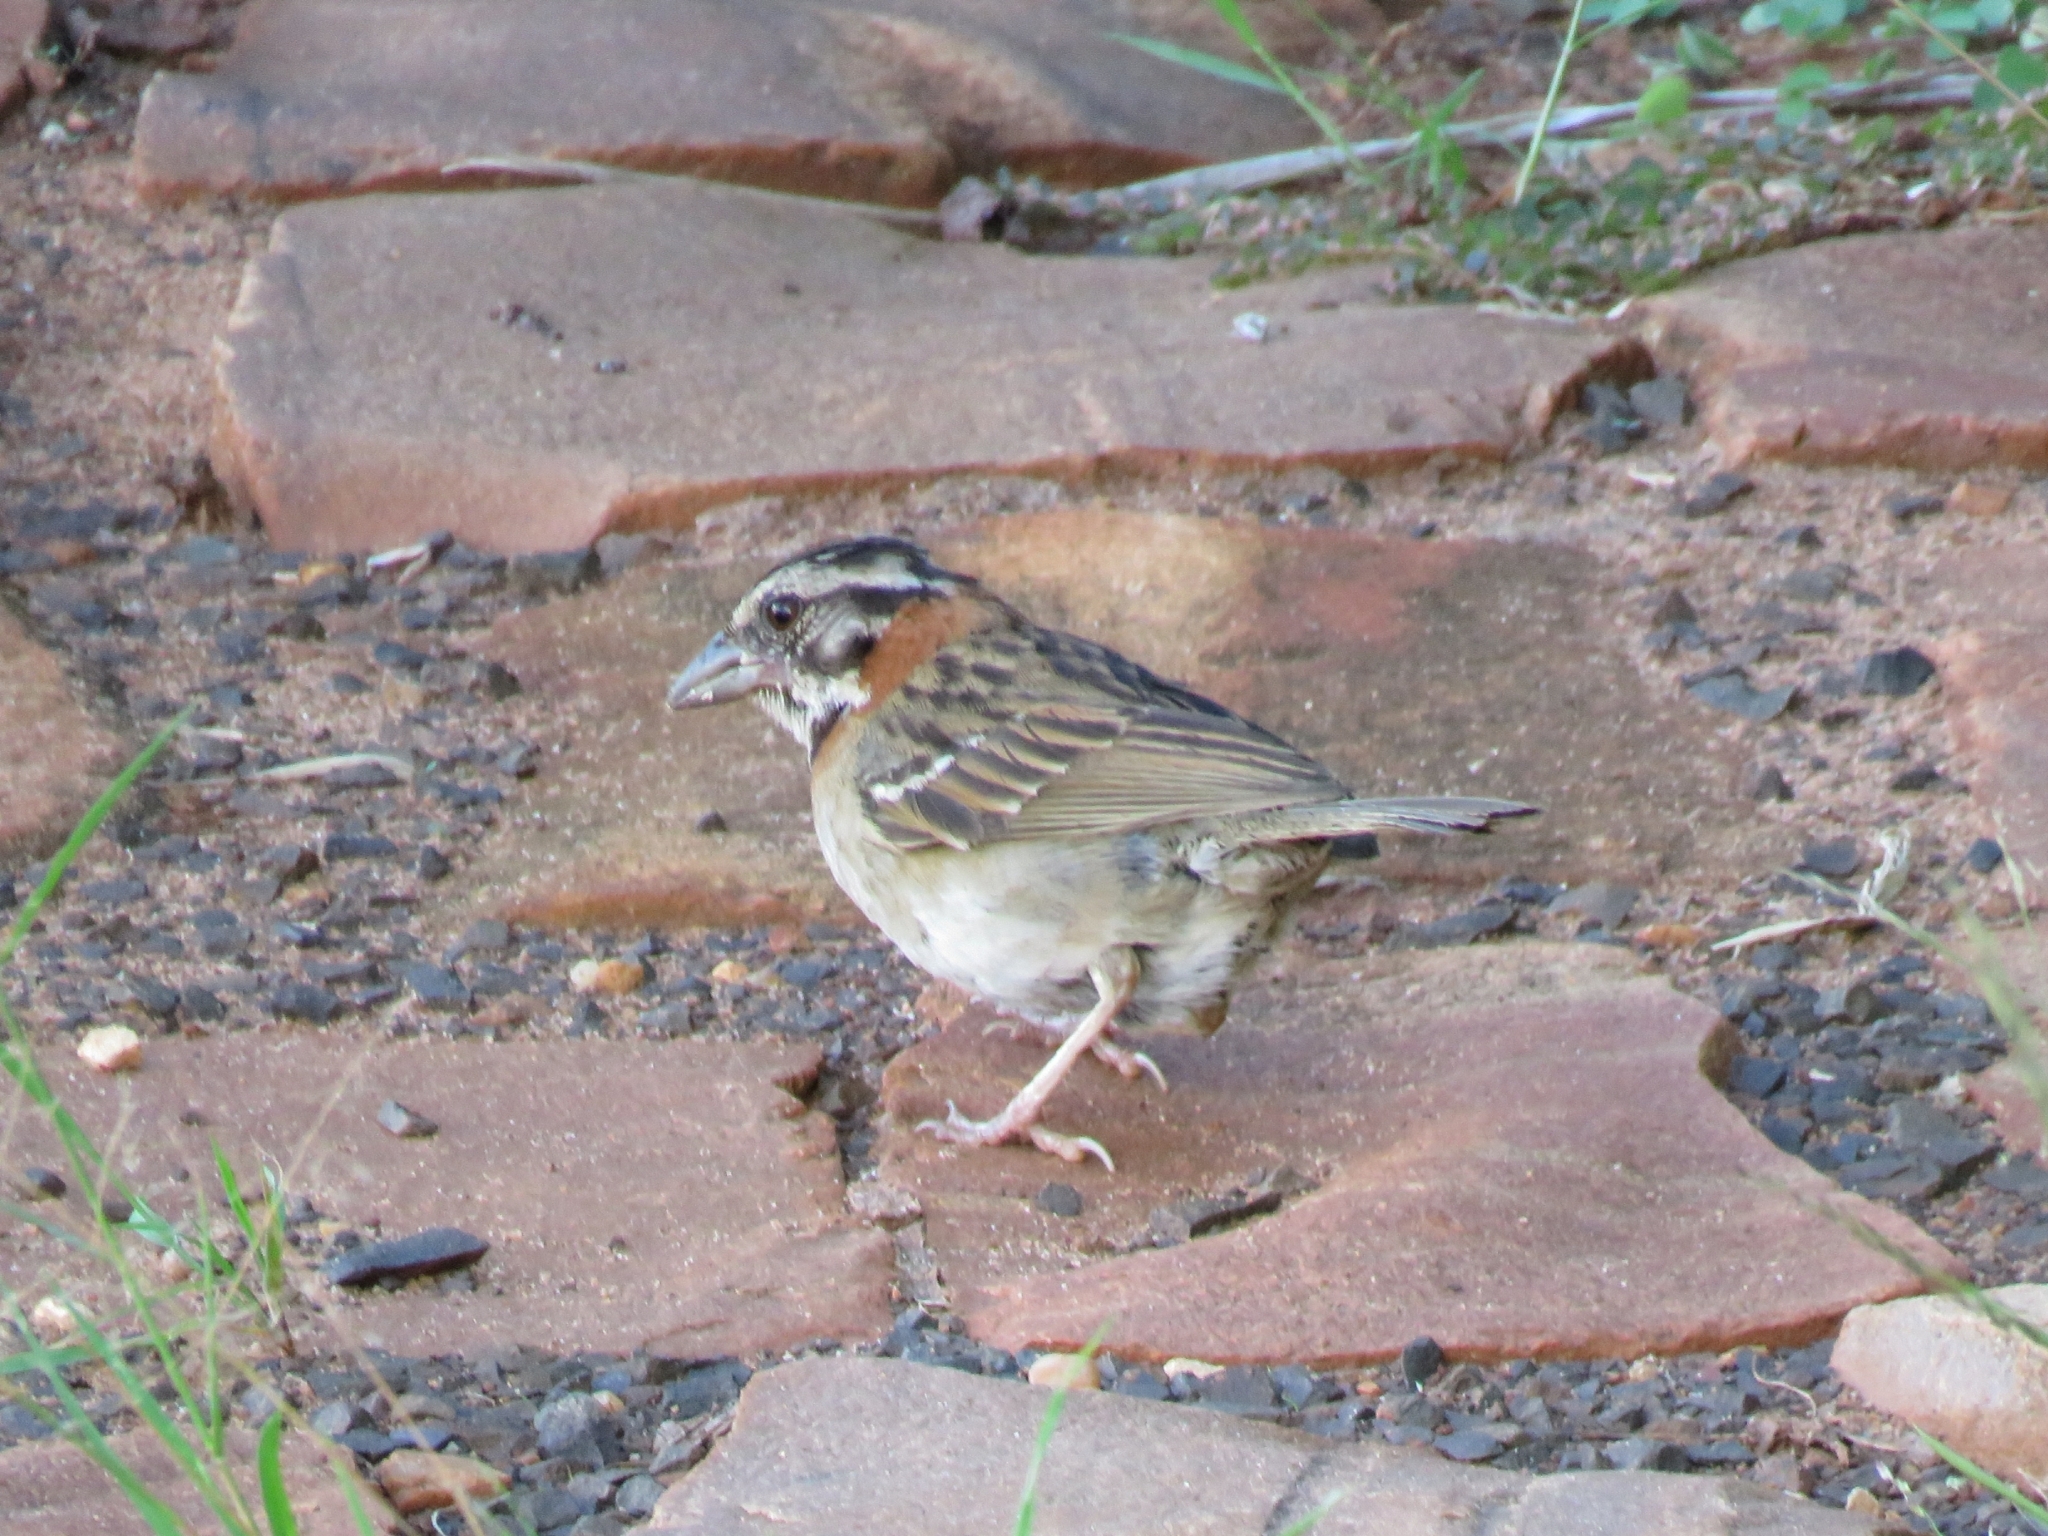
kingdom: Animalia
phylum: Chordata
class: Aves
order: Passeriformes
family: Passerellidae
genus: Zonotrichia
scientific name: Zonotrichia capensis
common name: Rufous-collared sparrow
